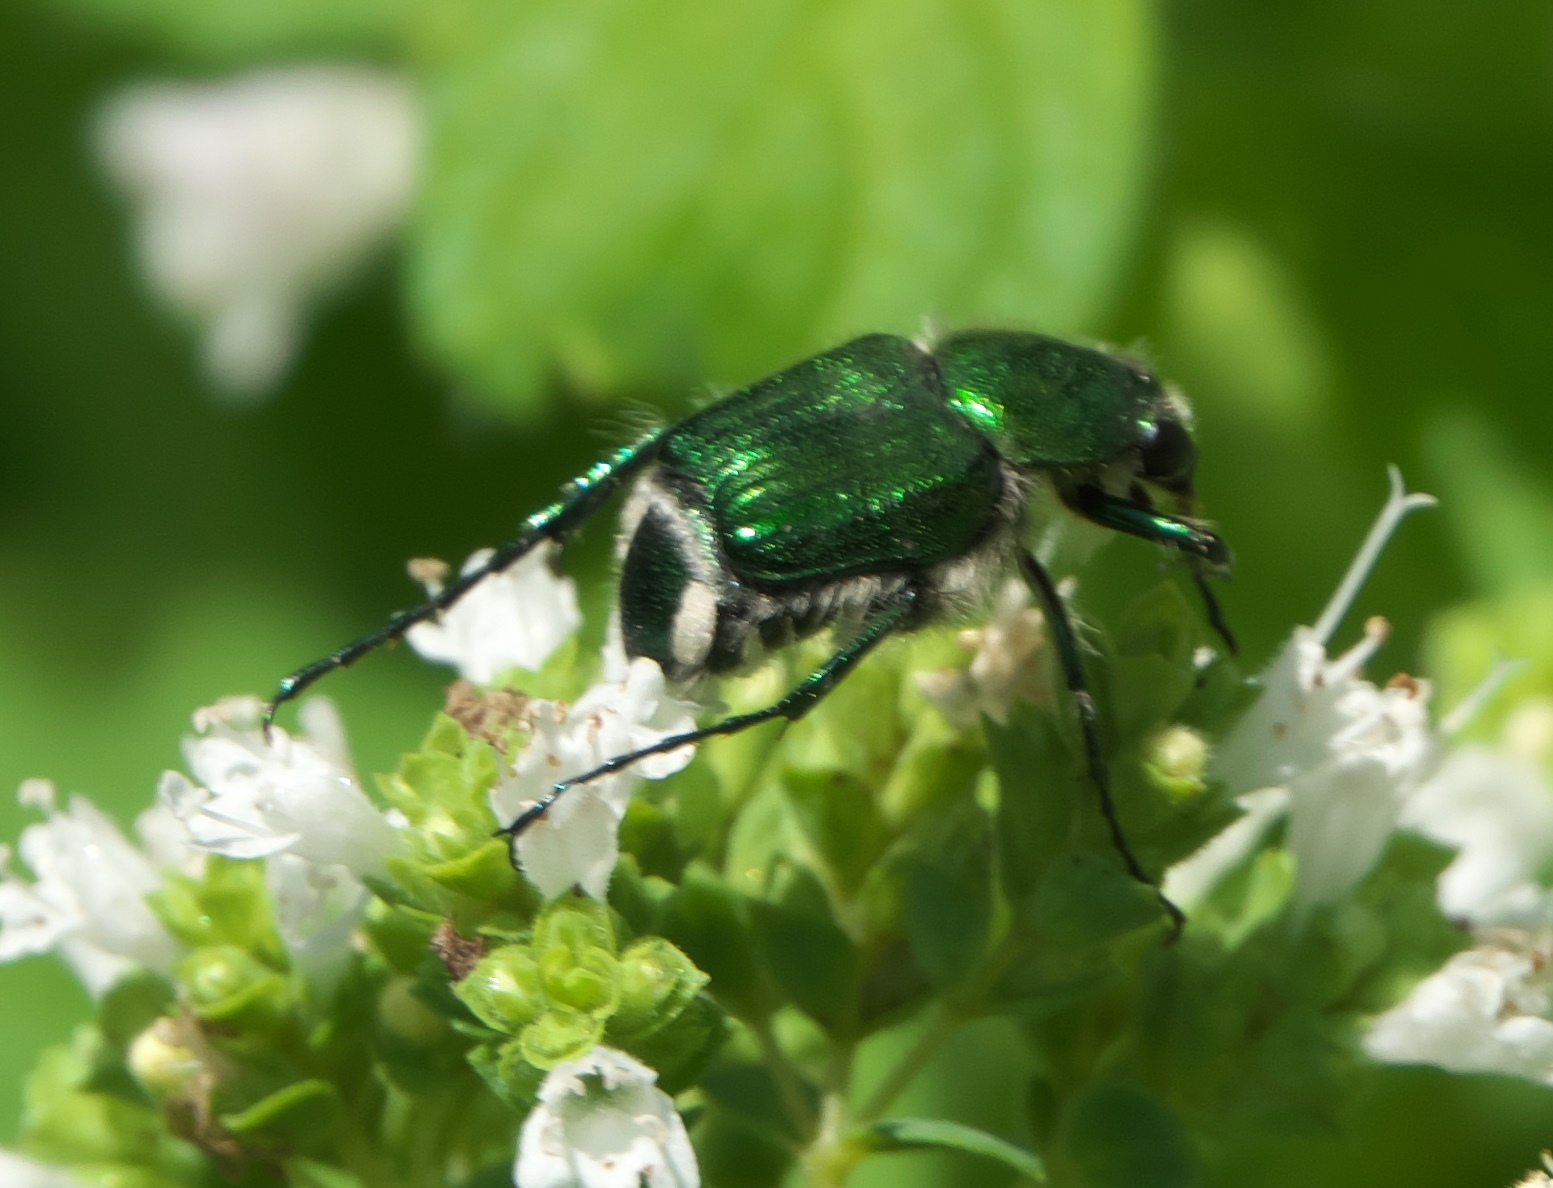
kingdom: Animalia
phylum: Arthropoda
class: Insecta
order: Coleoptera
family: Scarabaeidae
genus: Trichiotinus
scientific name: Trichiotinus lunulatus
